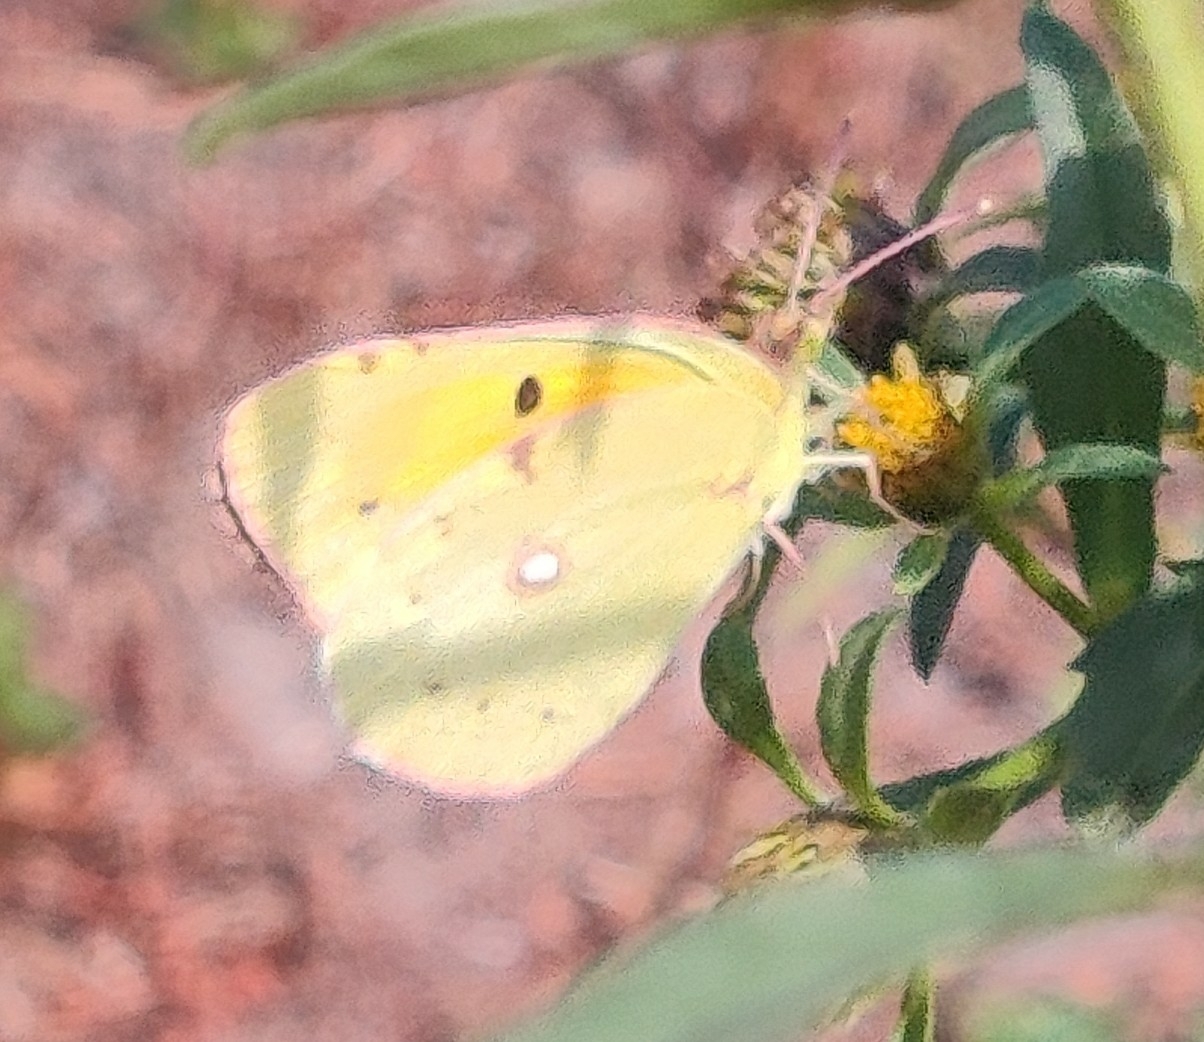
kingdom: Animalia
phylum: Arthropoda
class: Insecta
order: Lepidoptera
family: Pieridae
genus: Colias
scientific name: Colias croceus
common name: Clouded yellow
